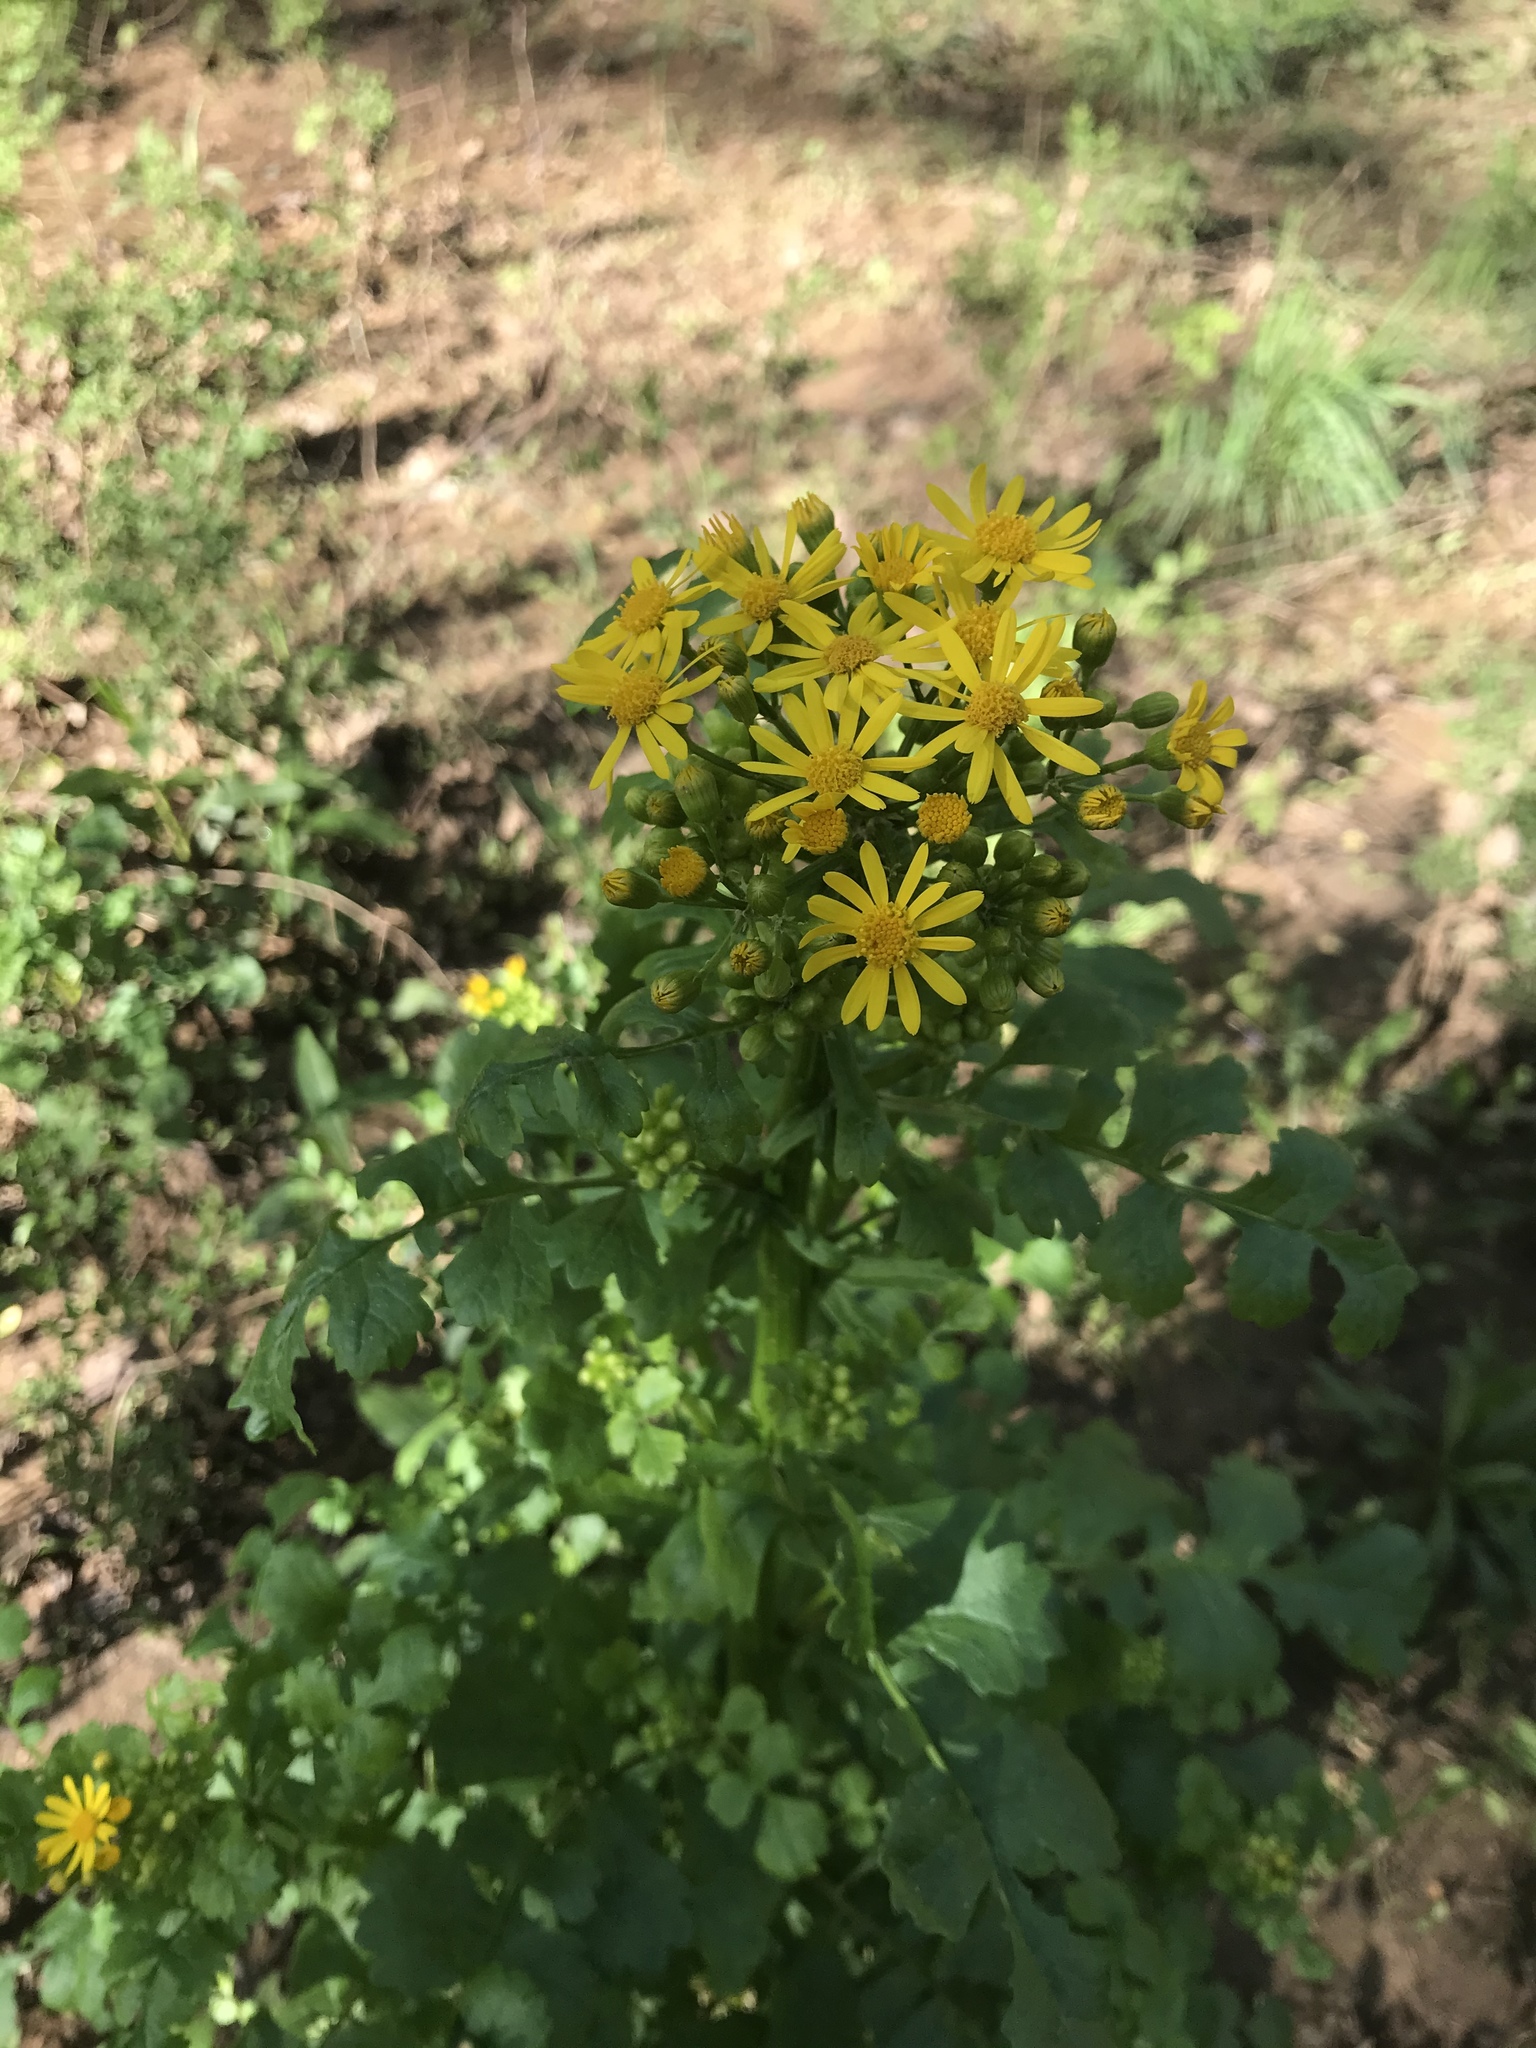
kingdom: Plantae
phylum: Tracheophyta
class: Magnoliopsida
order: Asterales
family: Asteraceae
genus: Packera
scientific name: Packera glabella
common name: Butterweed
